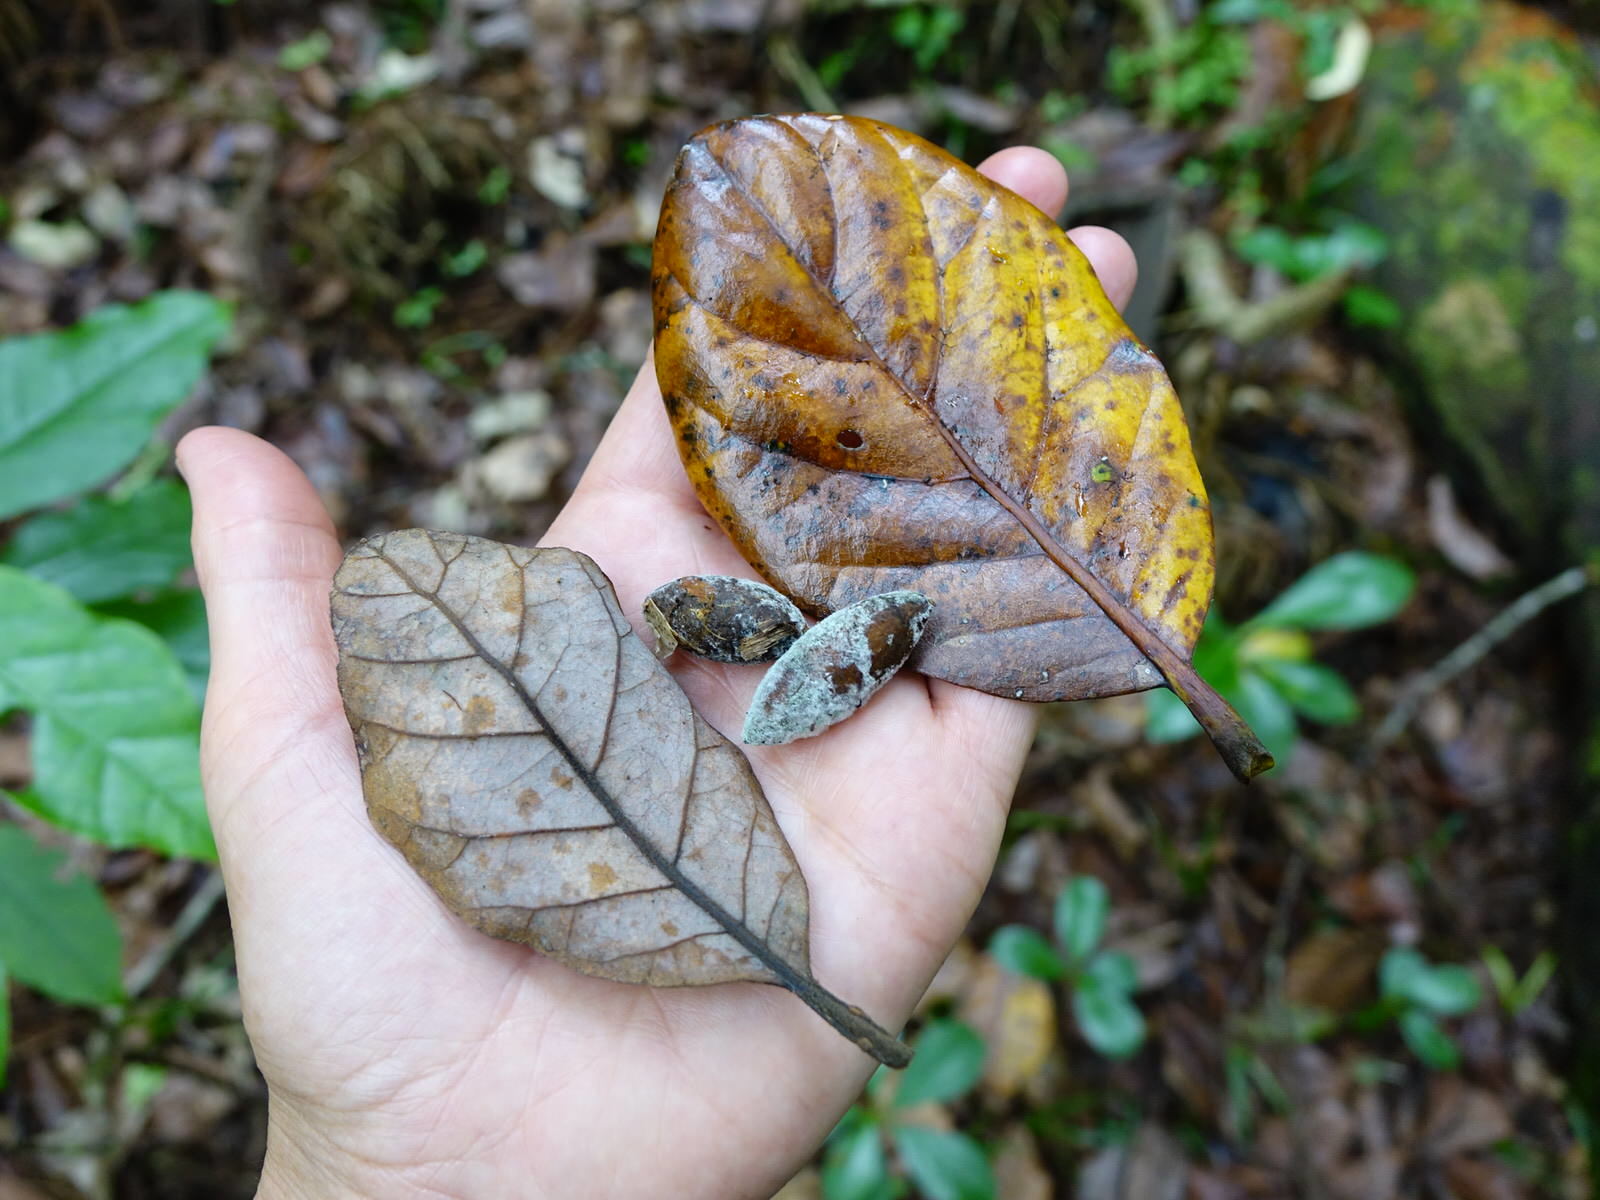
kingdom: Plantae
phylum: Tracheophyta
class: Magnoliopsida
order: Laurales
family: Lauraceae
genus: Beilschmiedia
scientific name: Beilschmiedia tarairi
